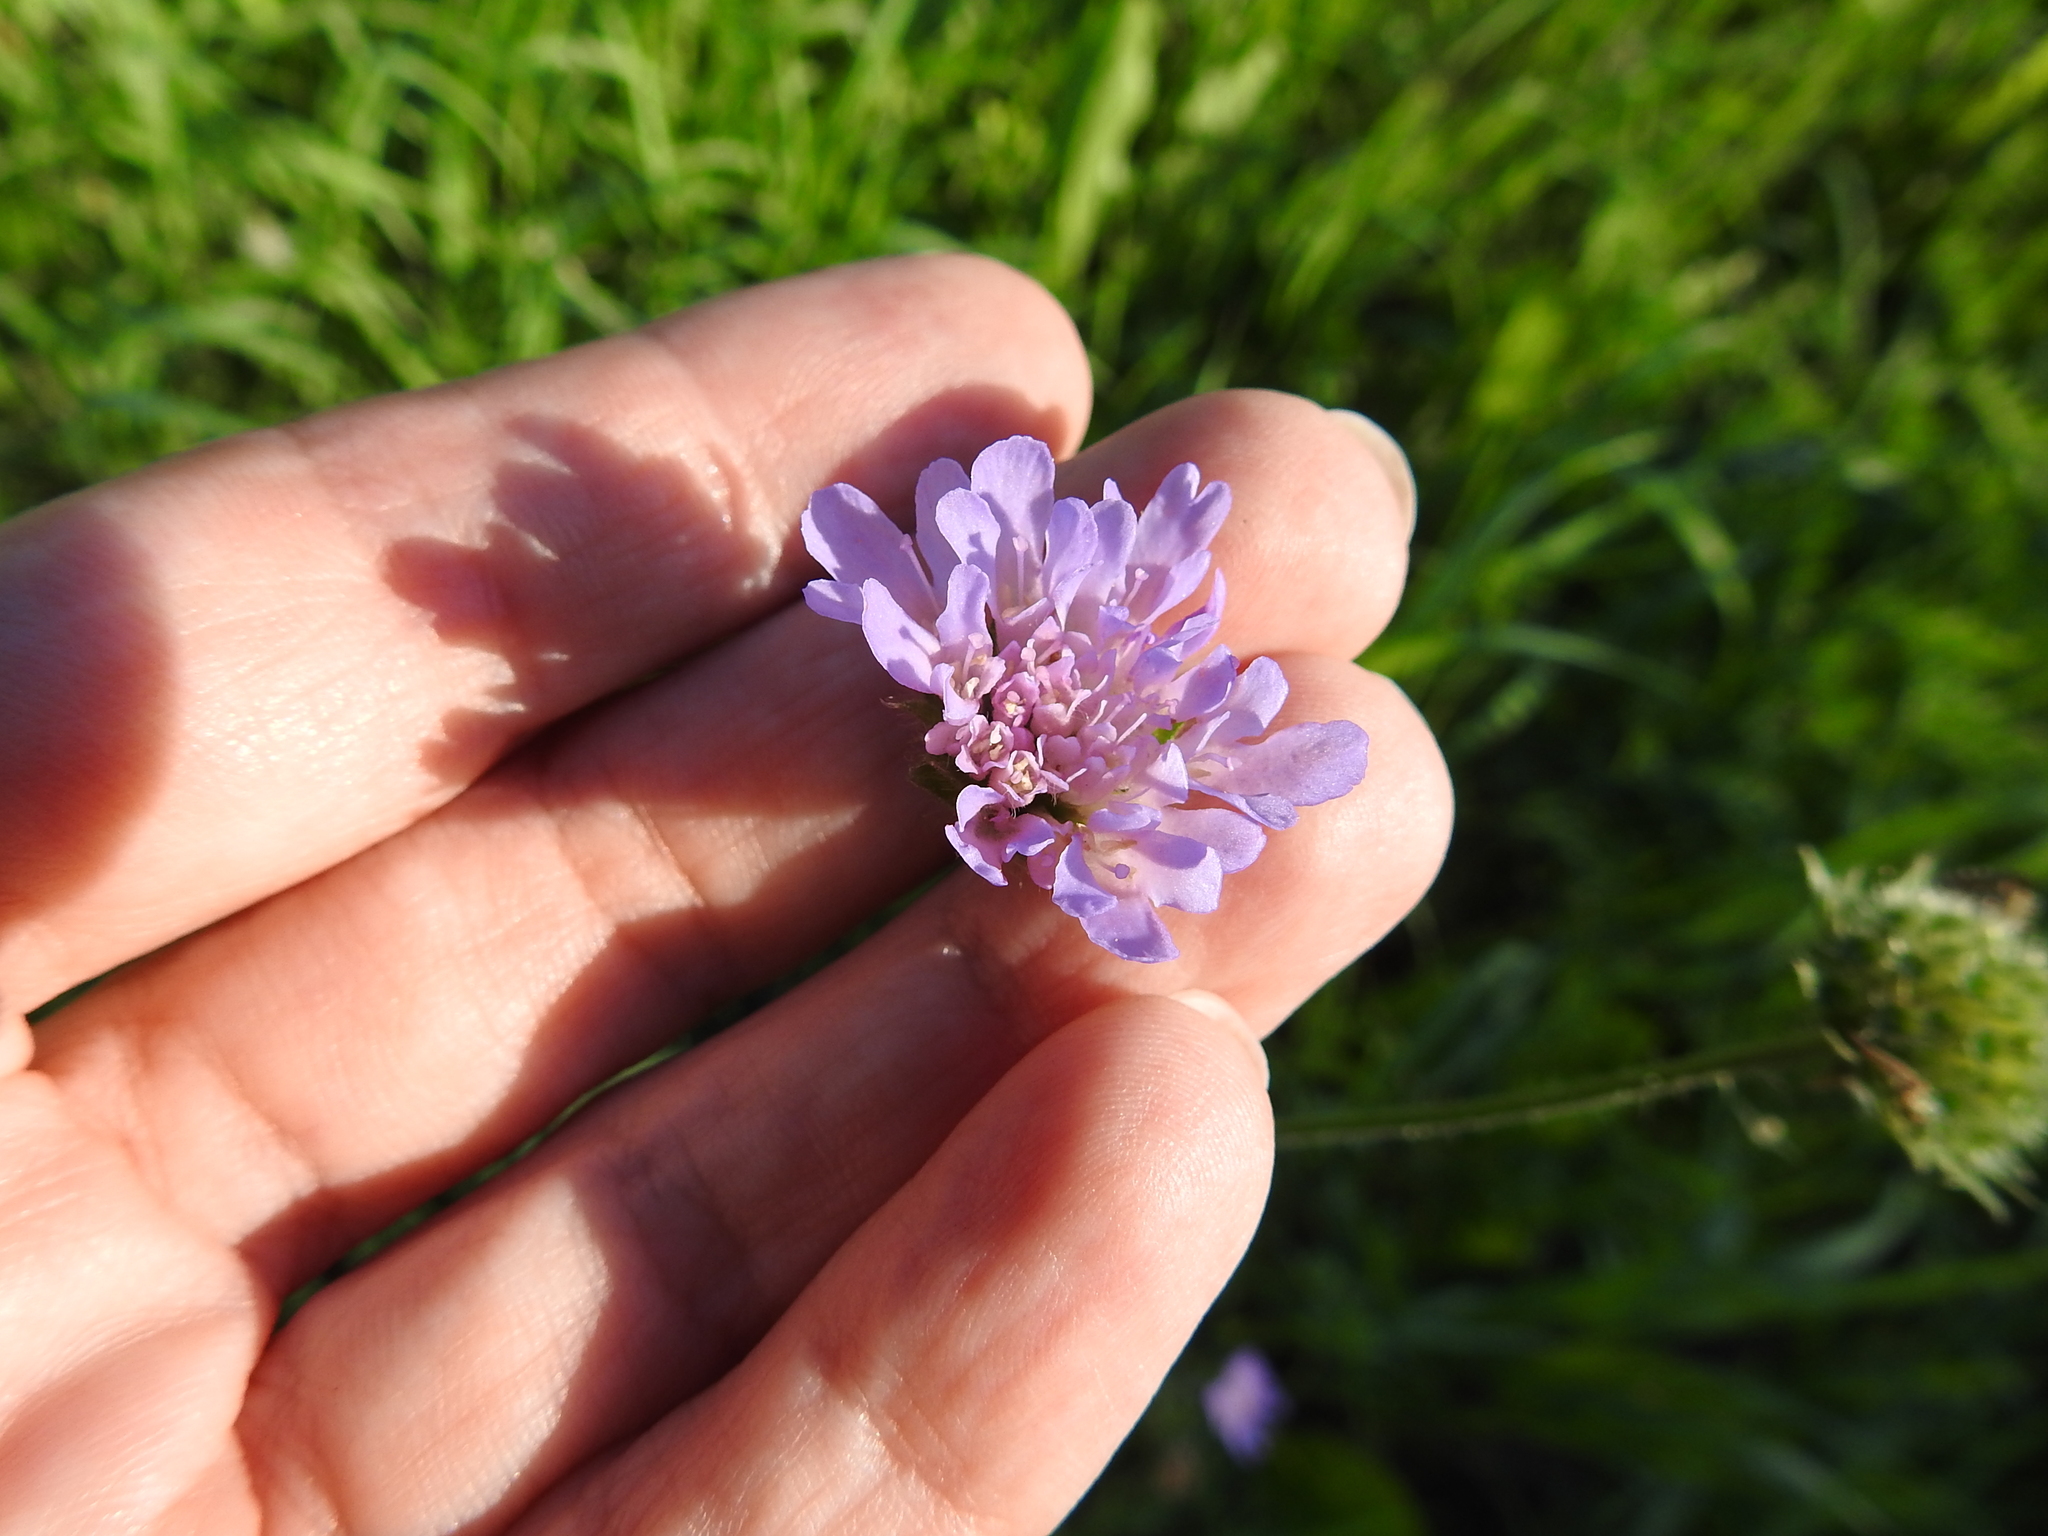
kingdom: Plantae
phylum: Tracheophyta
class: Magnoliopsida
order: Dipsacales
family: Caprifoliaceae
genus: Knautia
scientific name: Knautia arvensis
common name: Field scabiosa
